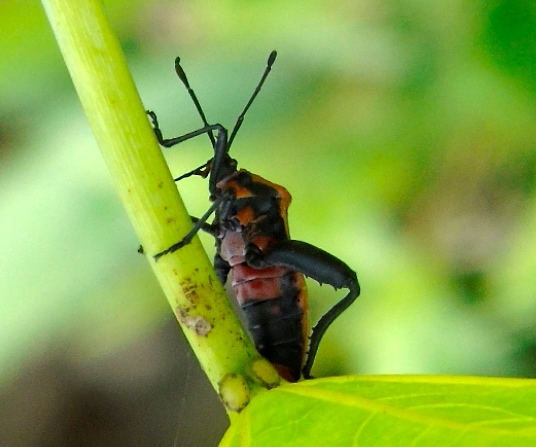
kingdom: Animalia
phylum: Arthropoda
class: Insecta
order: Hemiptera
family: Coreidae
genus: Sagotylus
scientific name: Sagotylus confluens
